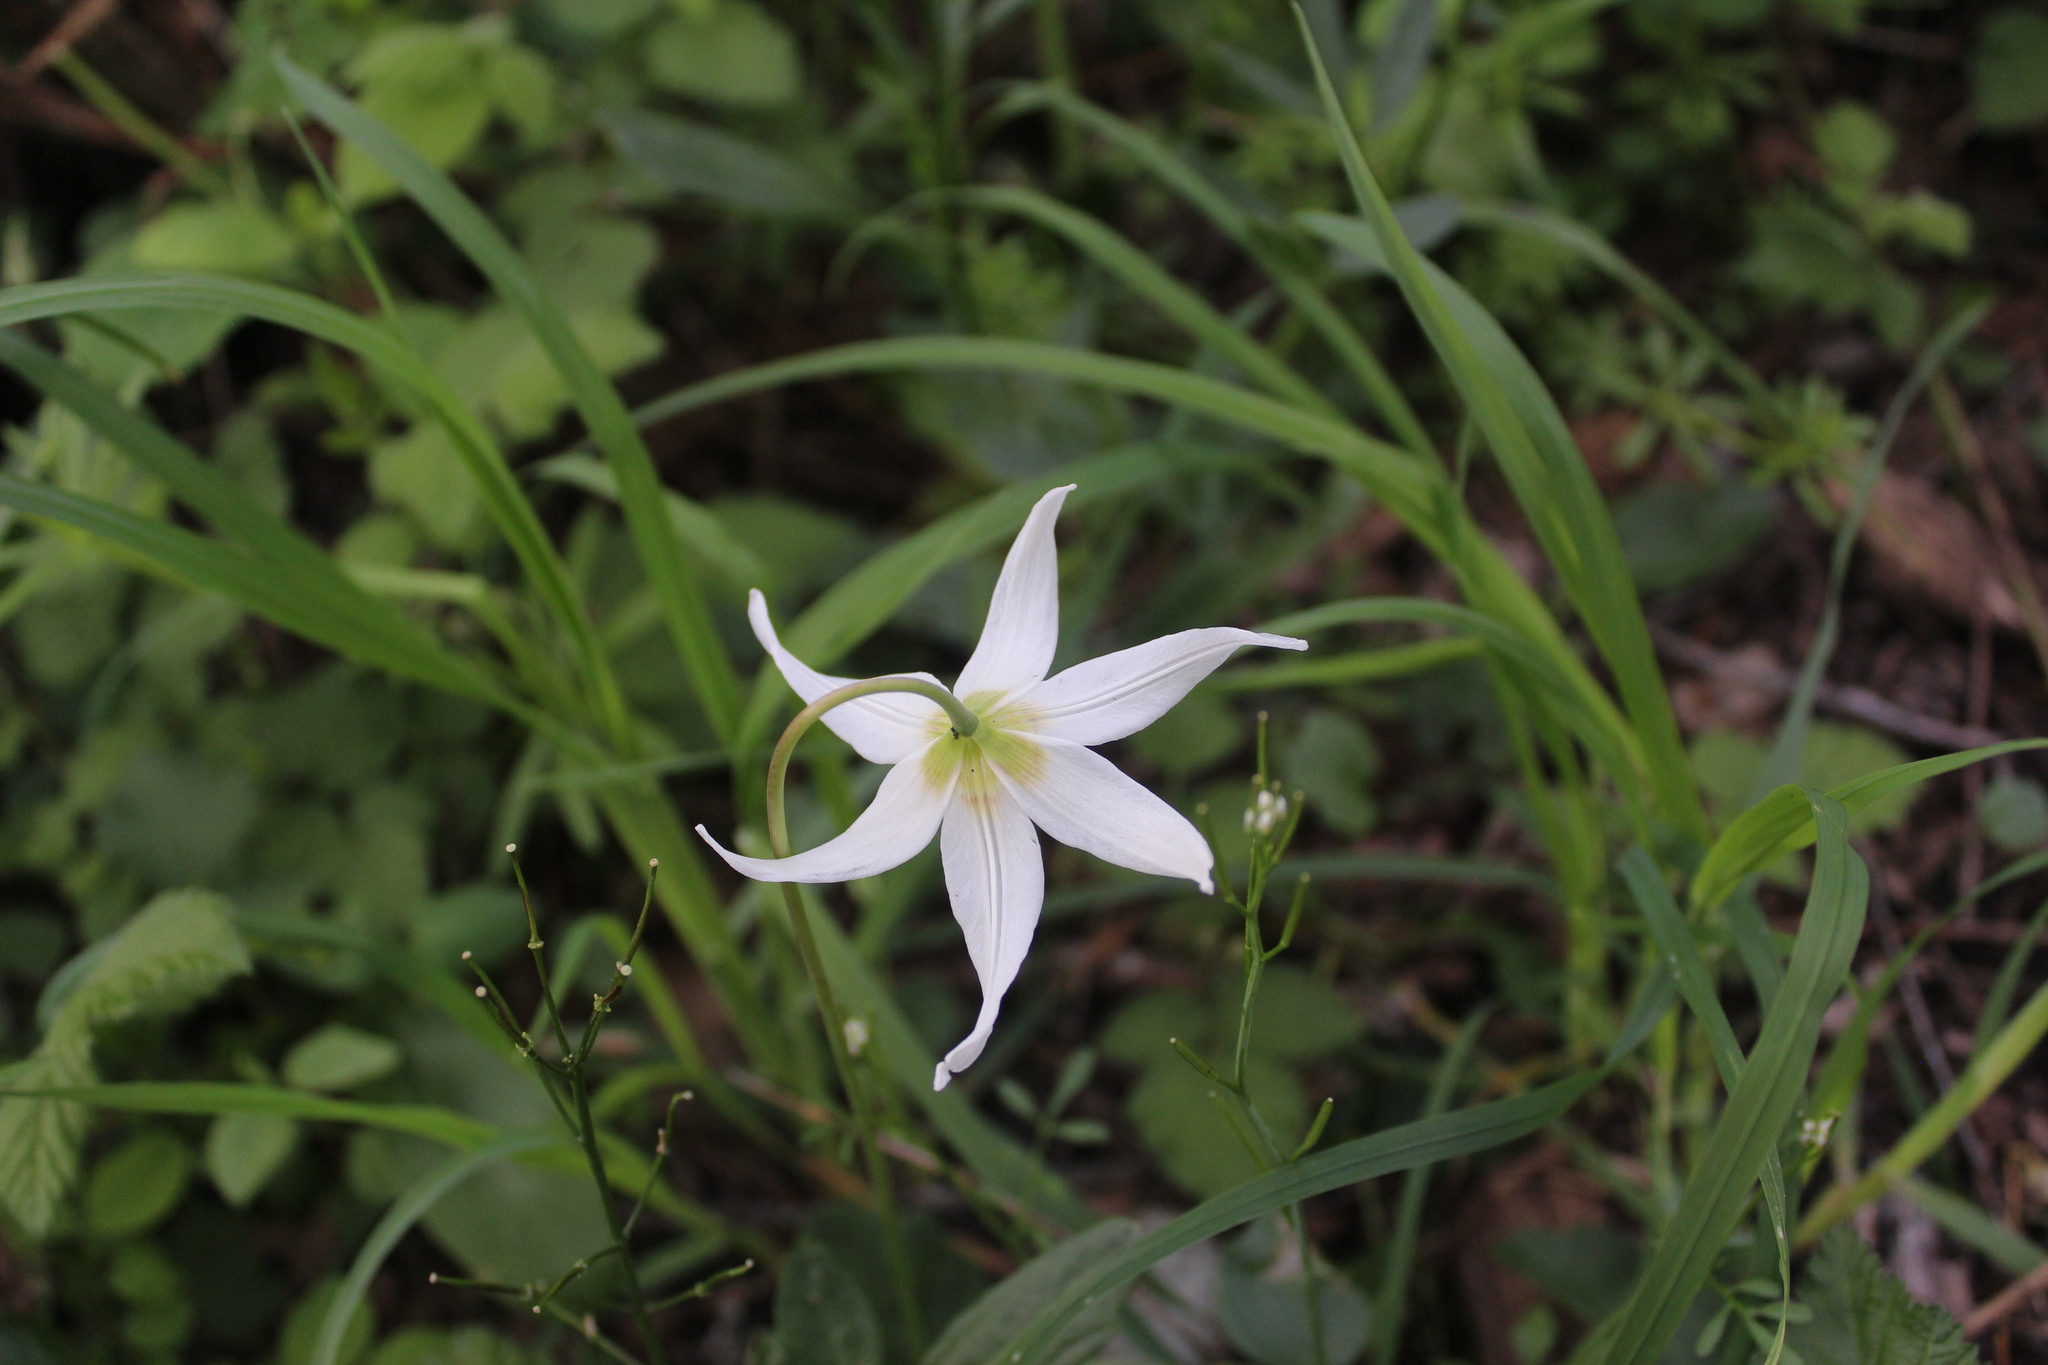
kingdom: Plantae
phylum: Tracheophyta
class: Liliopsida
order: Liliales
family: Liliaceae
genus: Erythronium
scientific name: Erythronium oregonum
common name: Giant adder's-tongue
